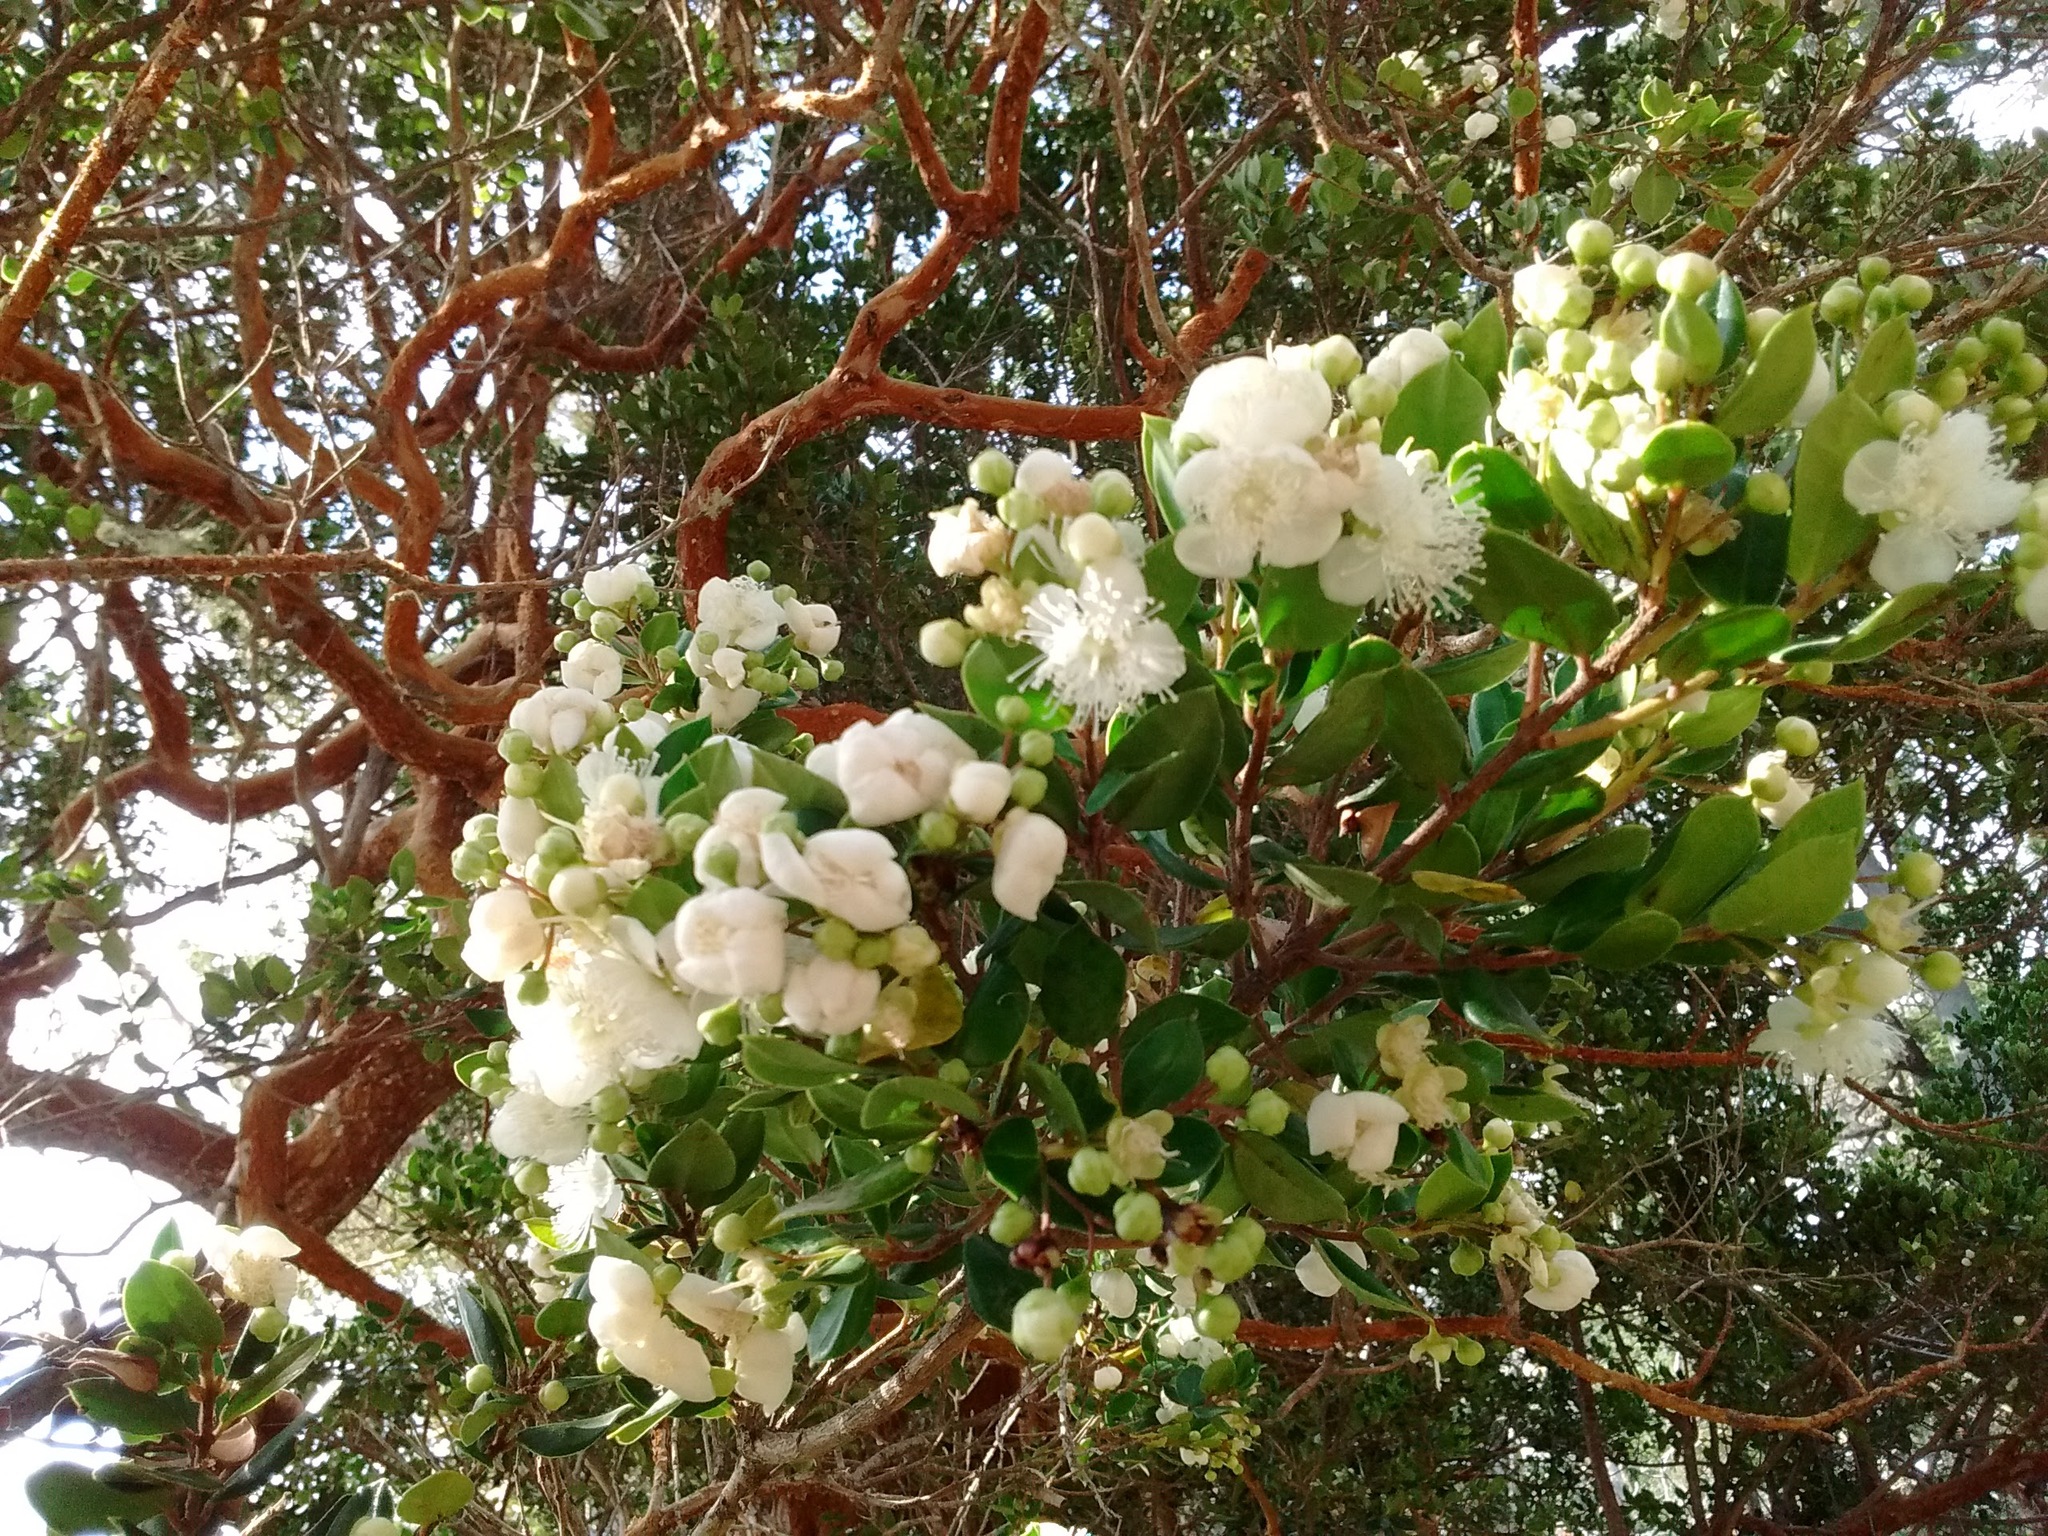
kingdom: Plantae
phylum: Tracheophyta
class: Magnoliopsida
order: Myrtales
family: Myrtaceae
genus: Luma
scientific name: Luma apiculata
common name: Chilean myrtle
